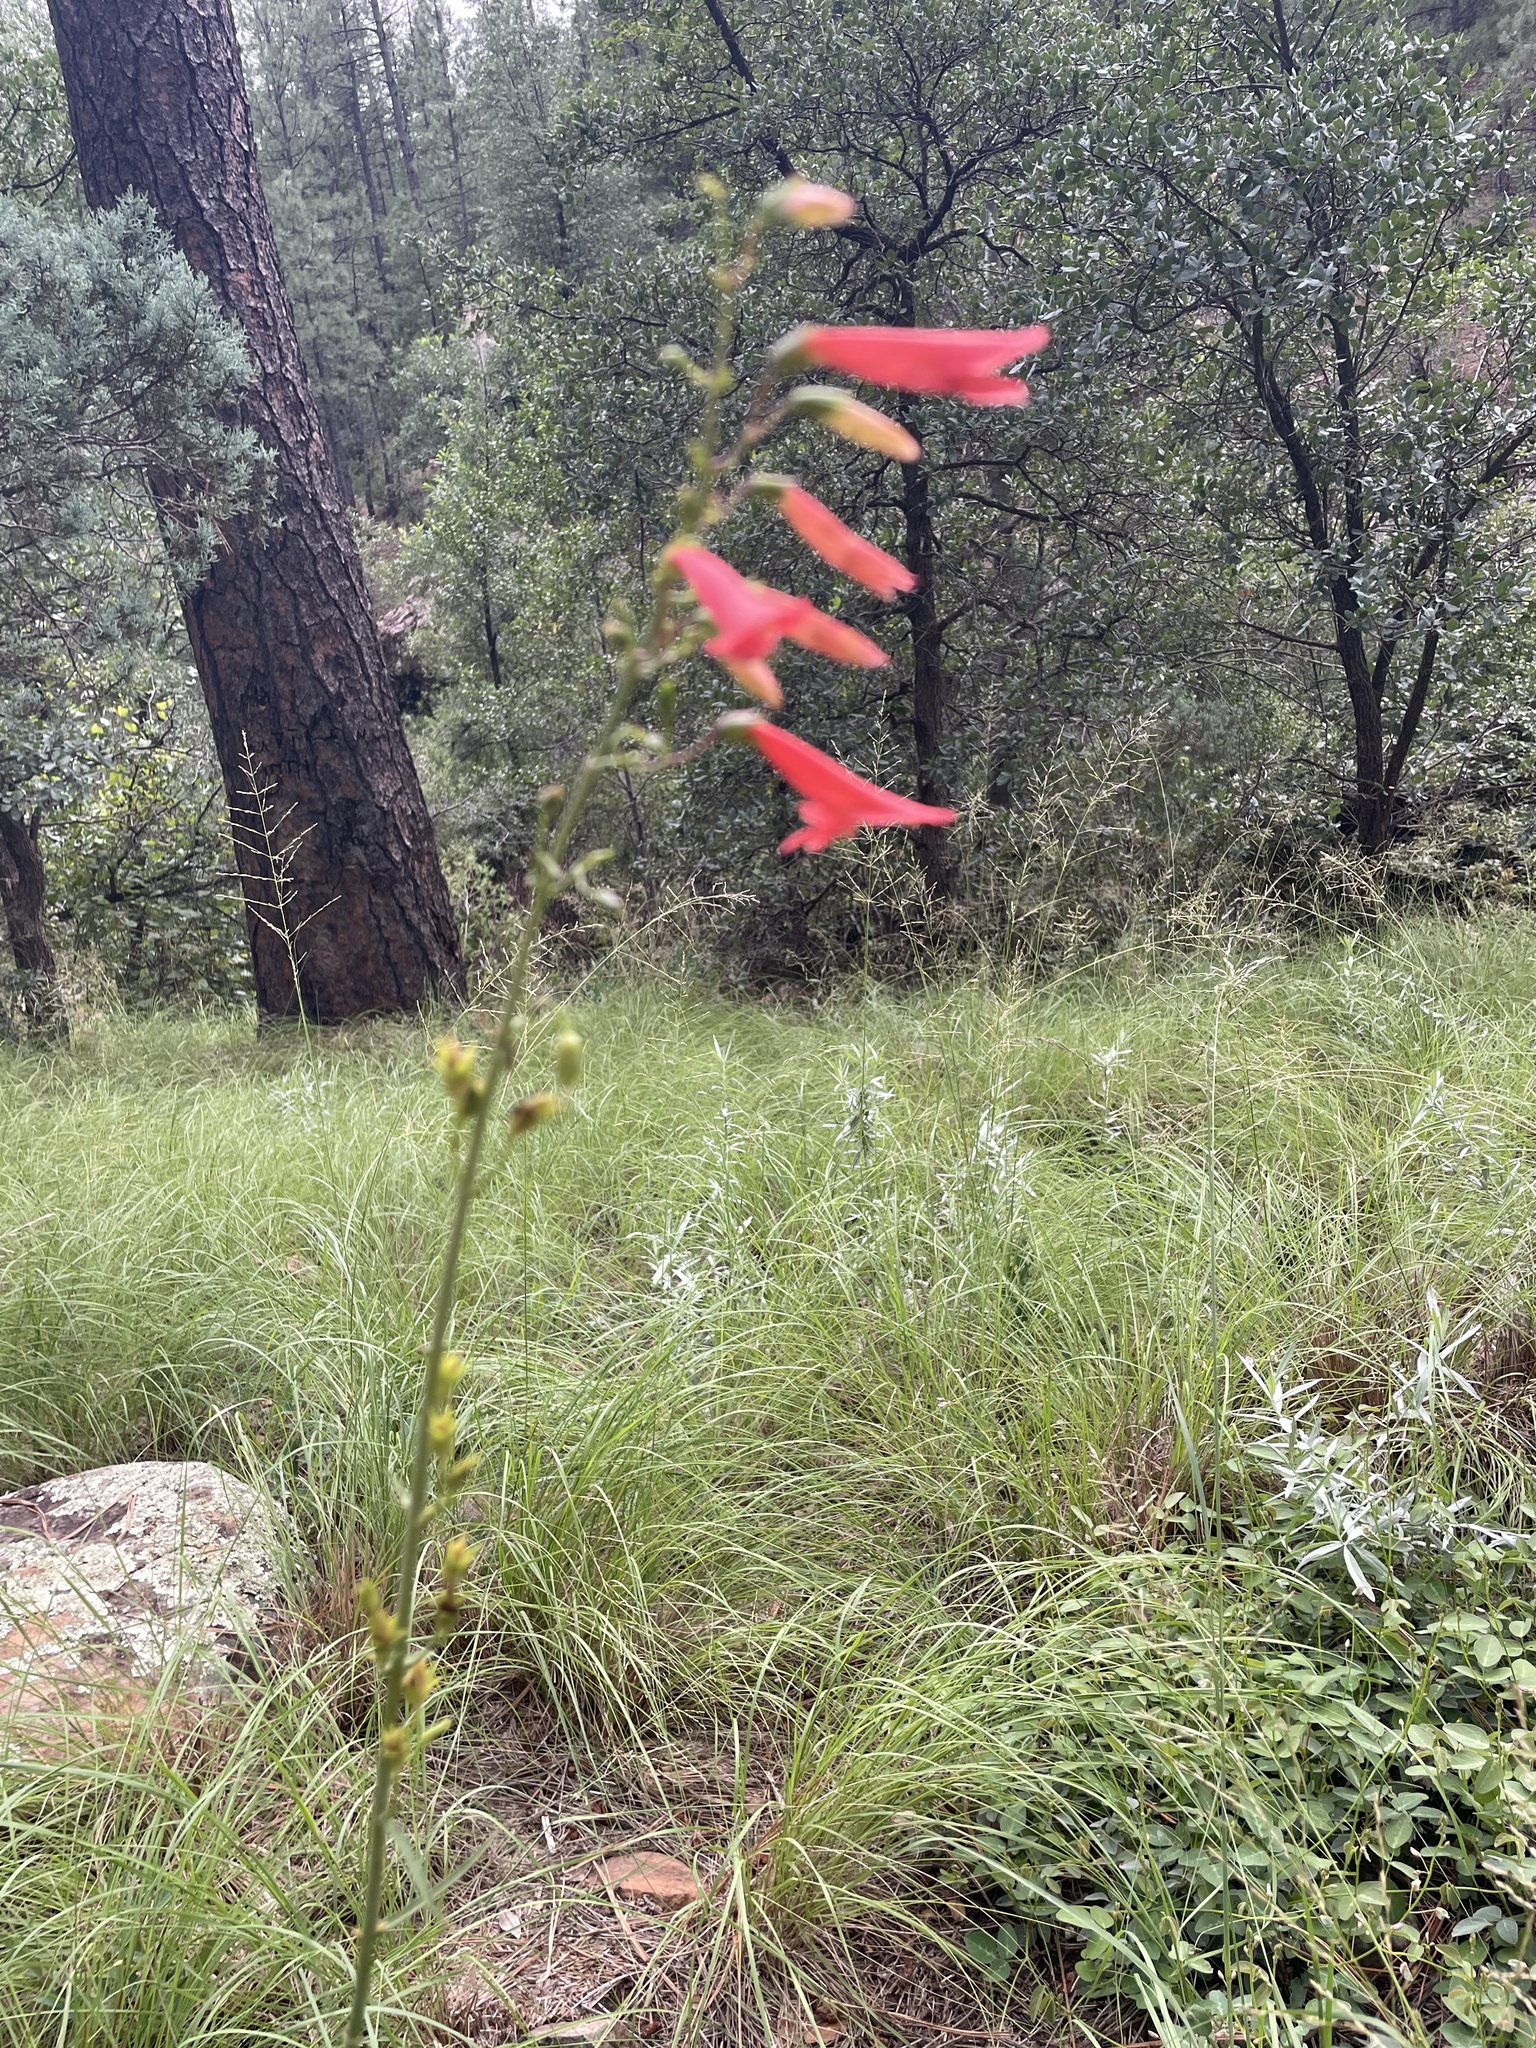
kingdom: Plantae
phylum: Tracheophyta
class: Magnoliopsida
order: Lamiales
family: Plantaginaceae
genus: Penstemon
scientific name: Penstemon barbatus
